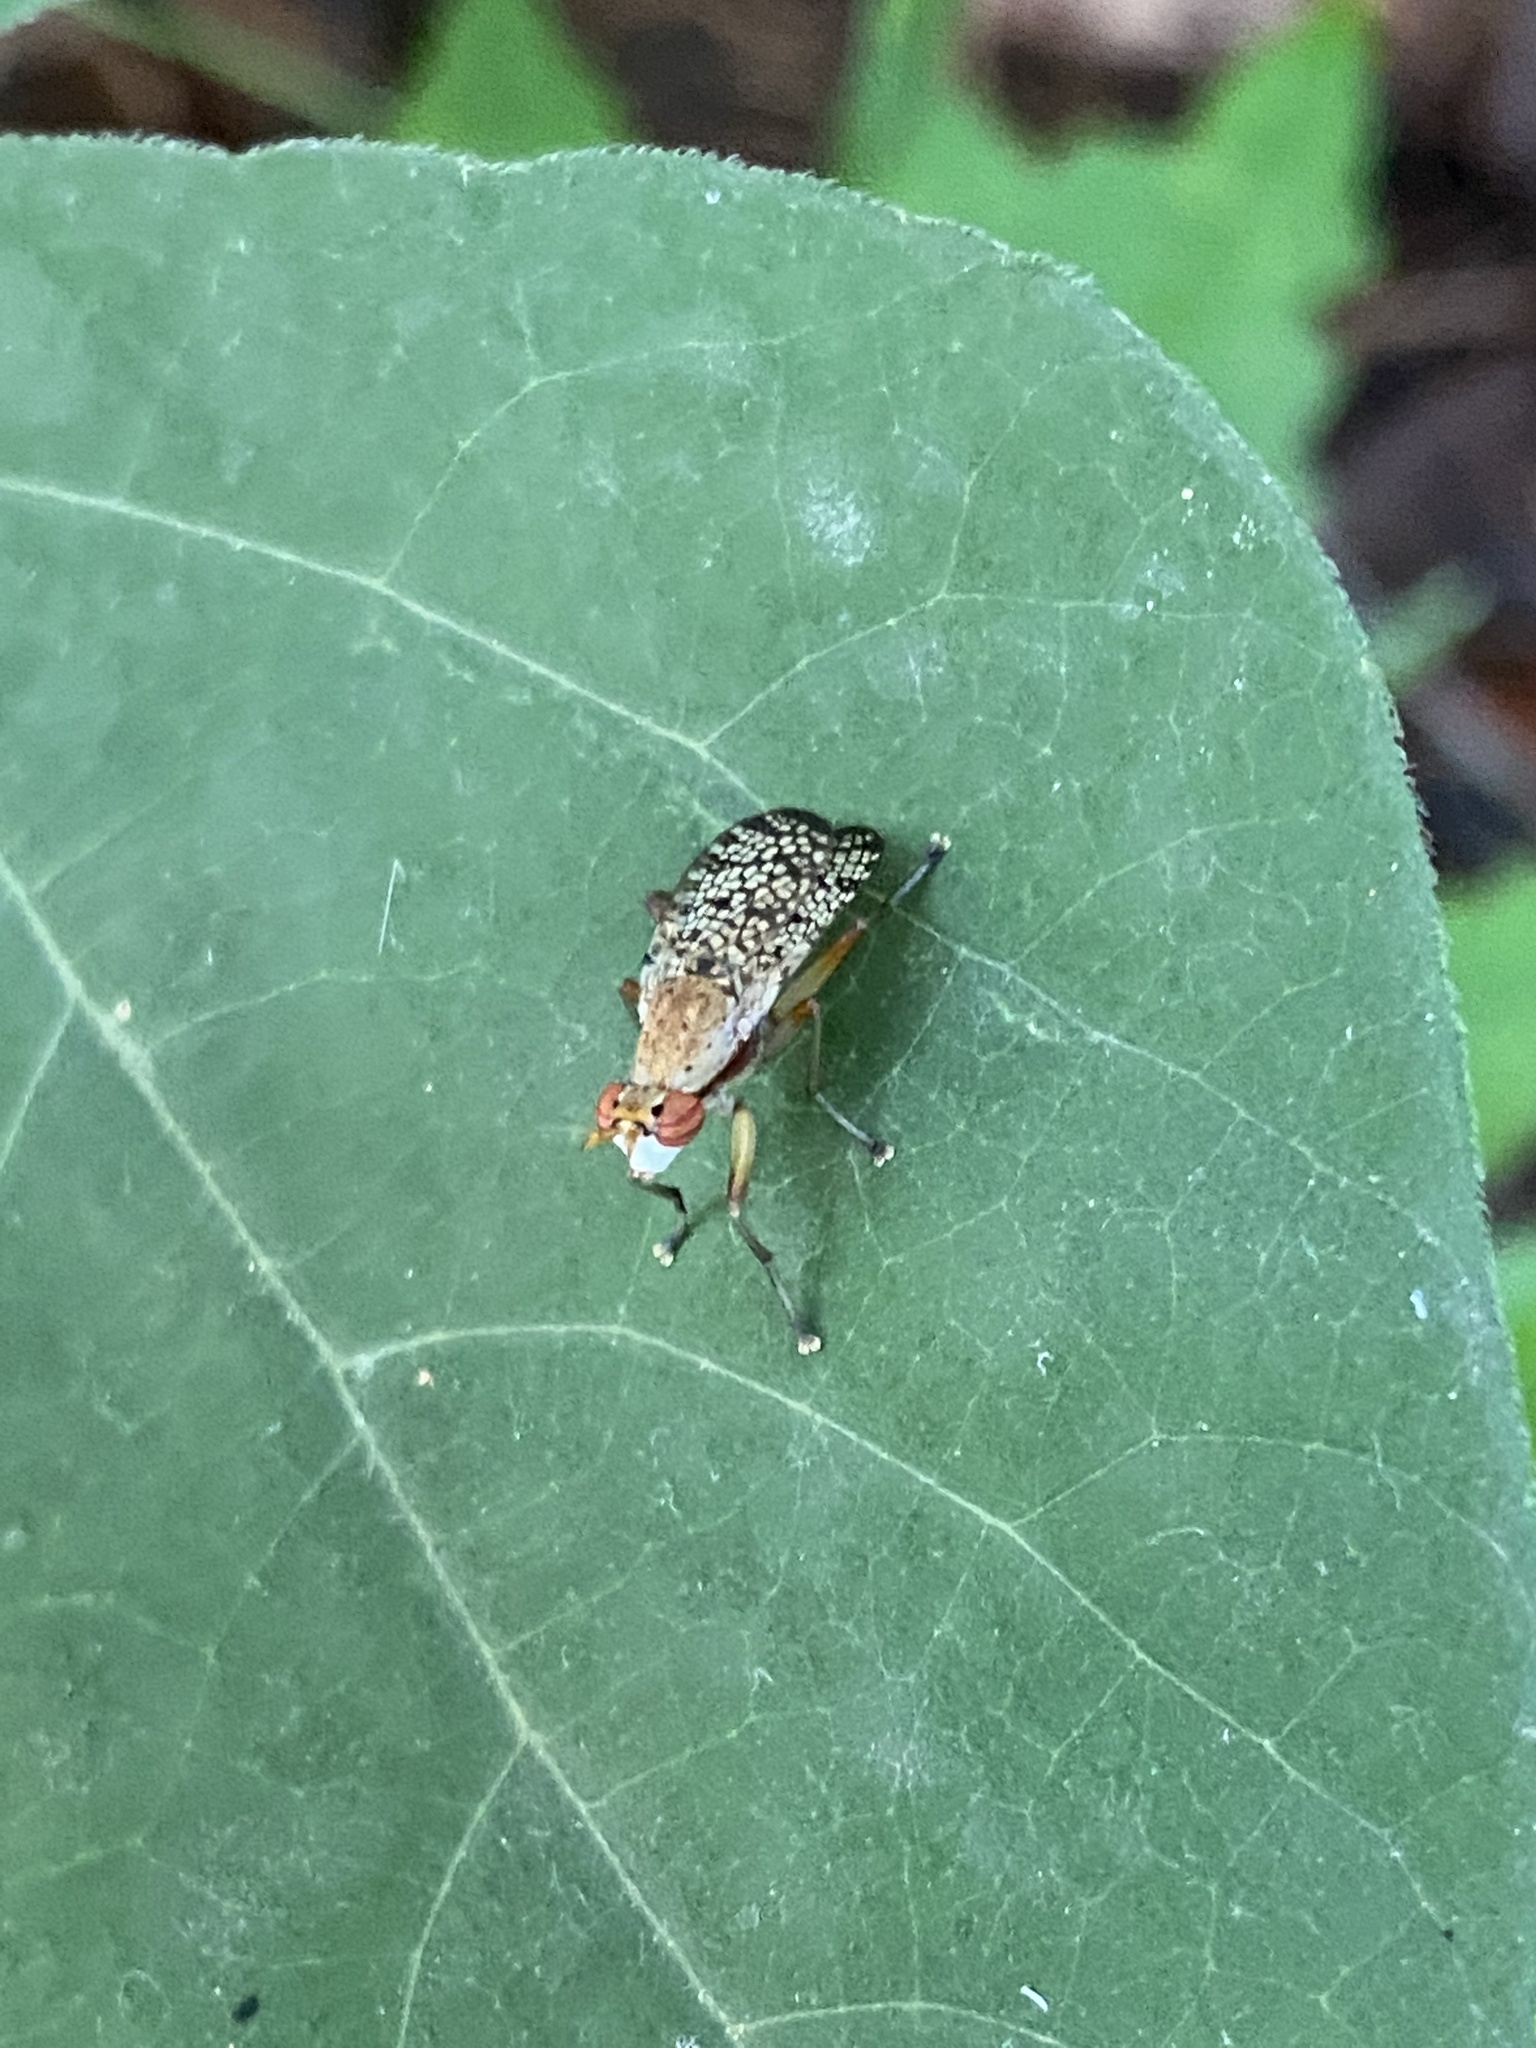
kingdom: Animalia
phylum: Arthropoda
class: Insecta
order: Diptera
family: Sciomyzidae
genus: Euthycera
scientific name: Euthycera flavescens
